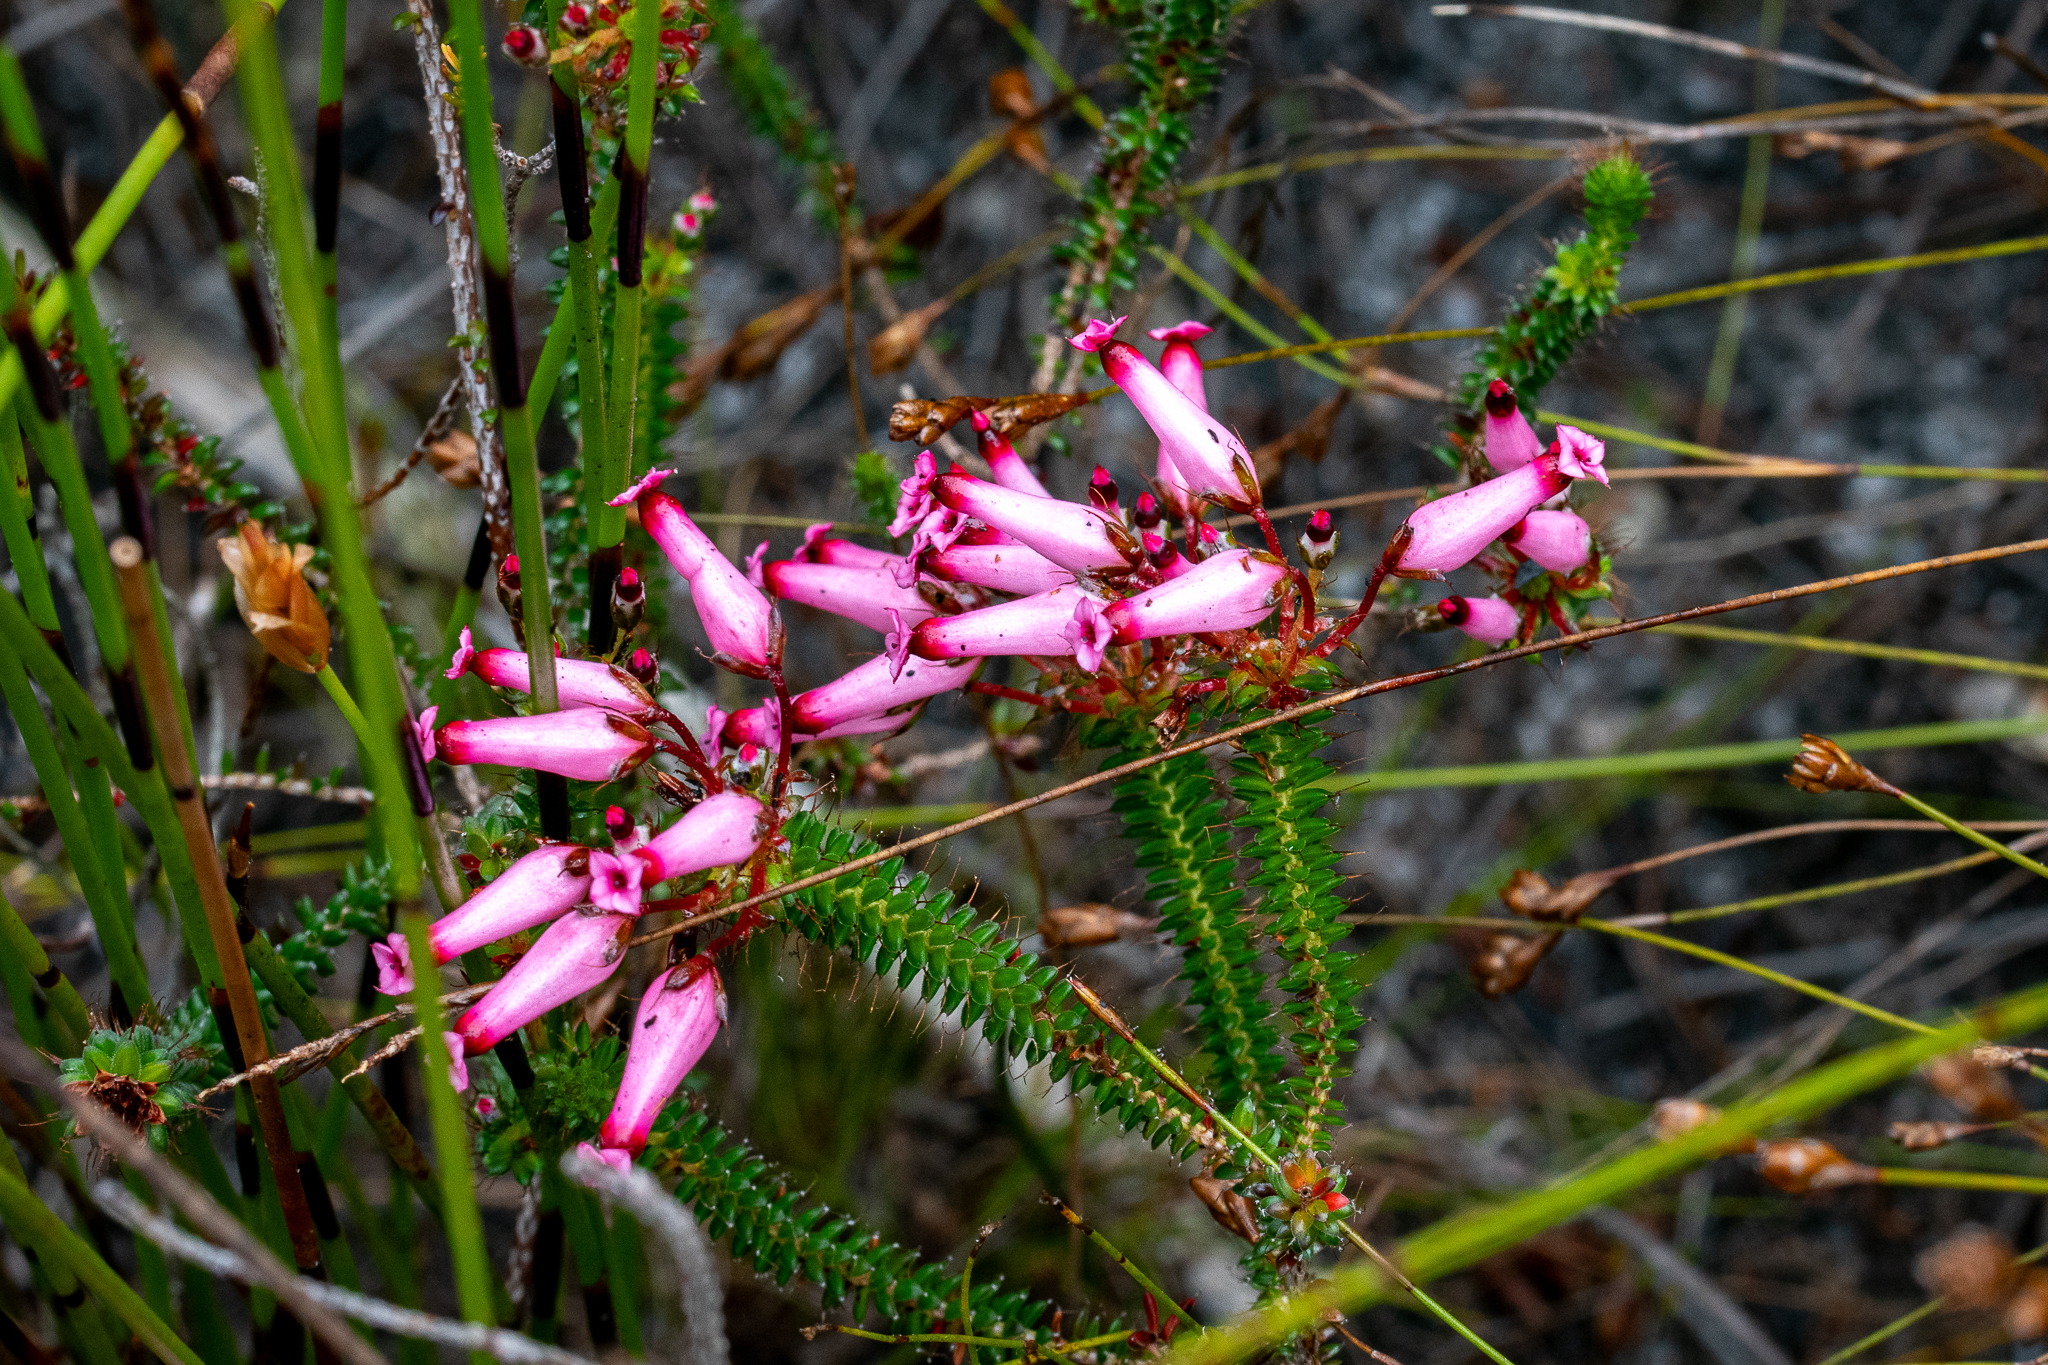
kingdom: Plantae
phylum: Tracheophyta
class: Magnoliopsida
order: Ericales
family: Ericaceae
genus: Erica
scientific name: Erica retorta
